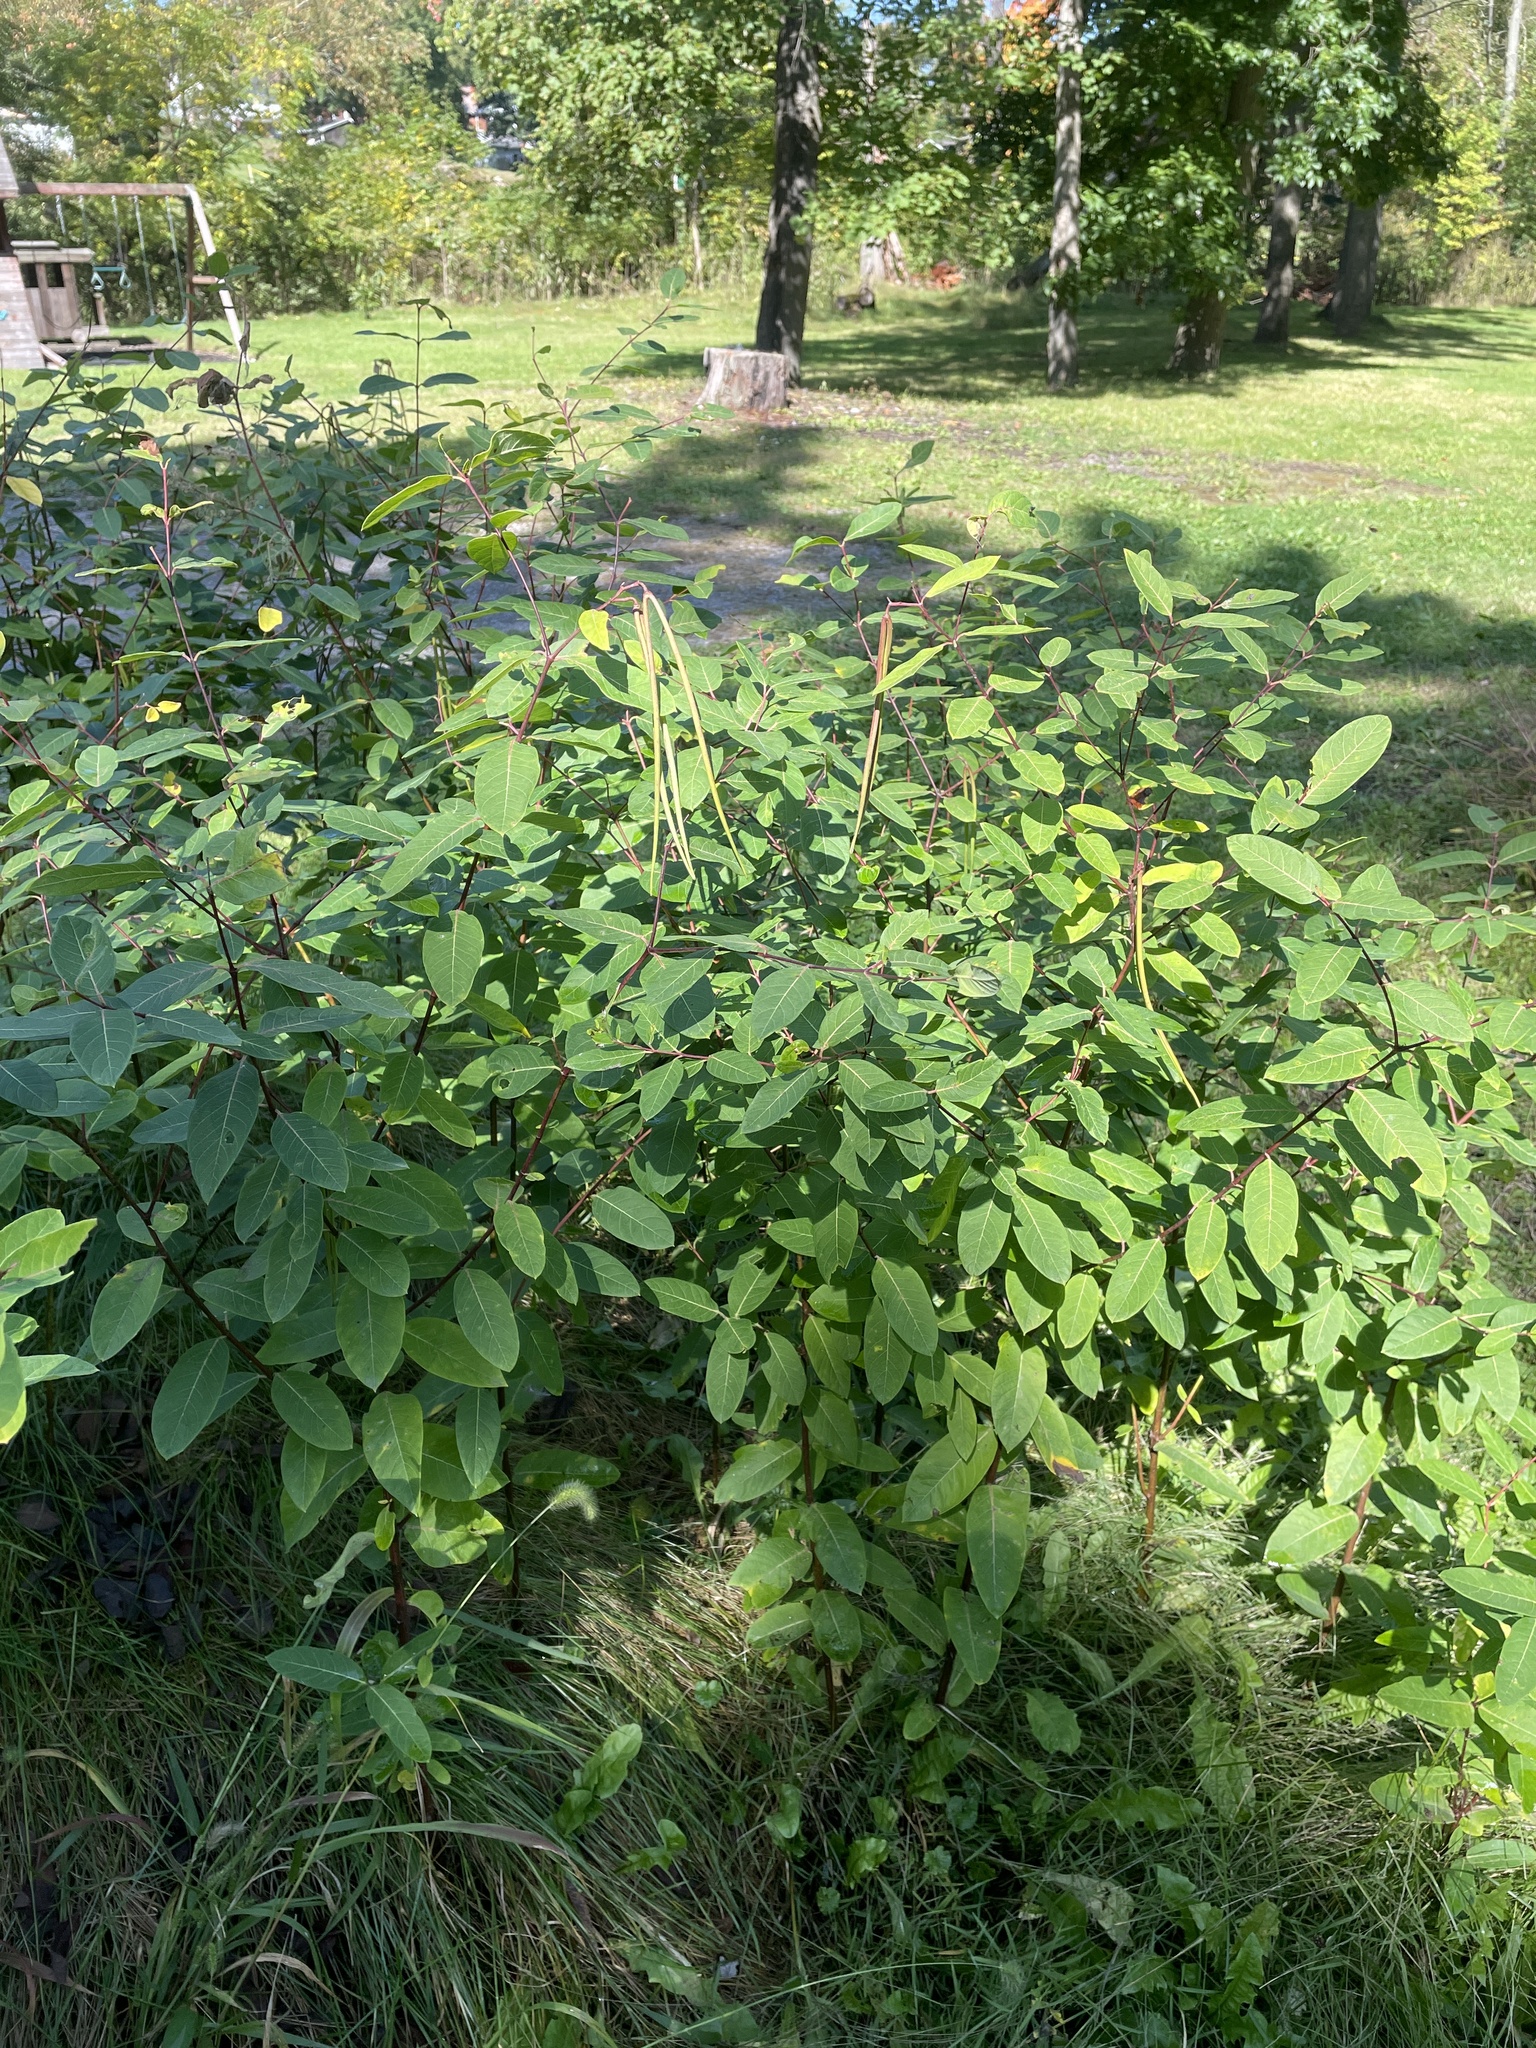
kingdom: Plantae
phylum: Tracheophyta
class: Magnoliopsida
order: Gentianales
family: Apocynaceae
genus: Apocynum
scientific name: Apocynum cannabinum
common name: Hemp dogbane
